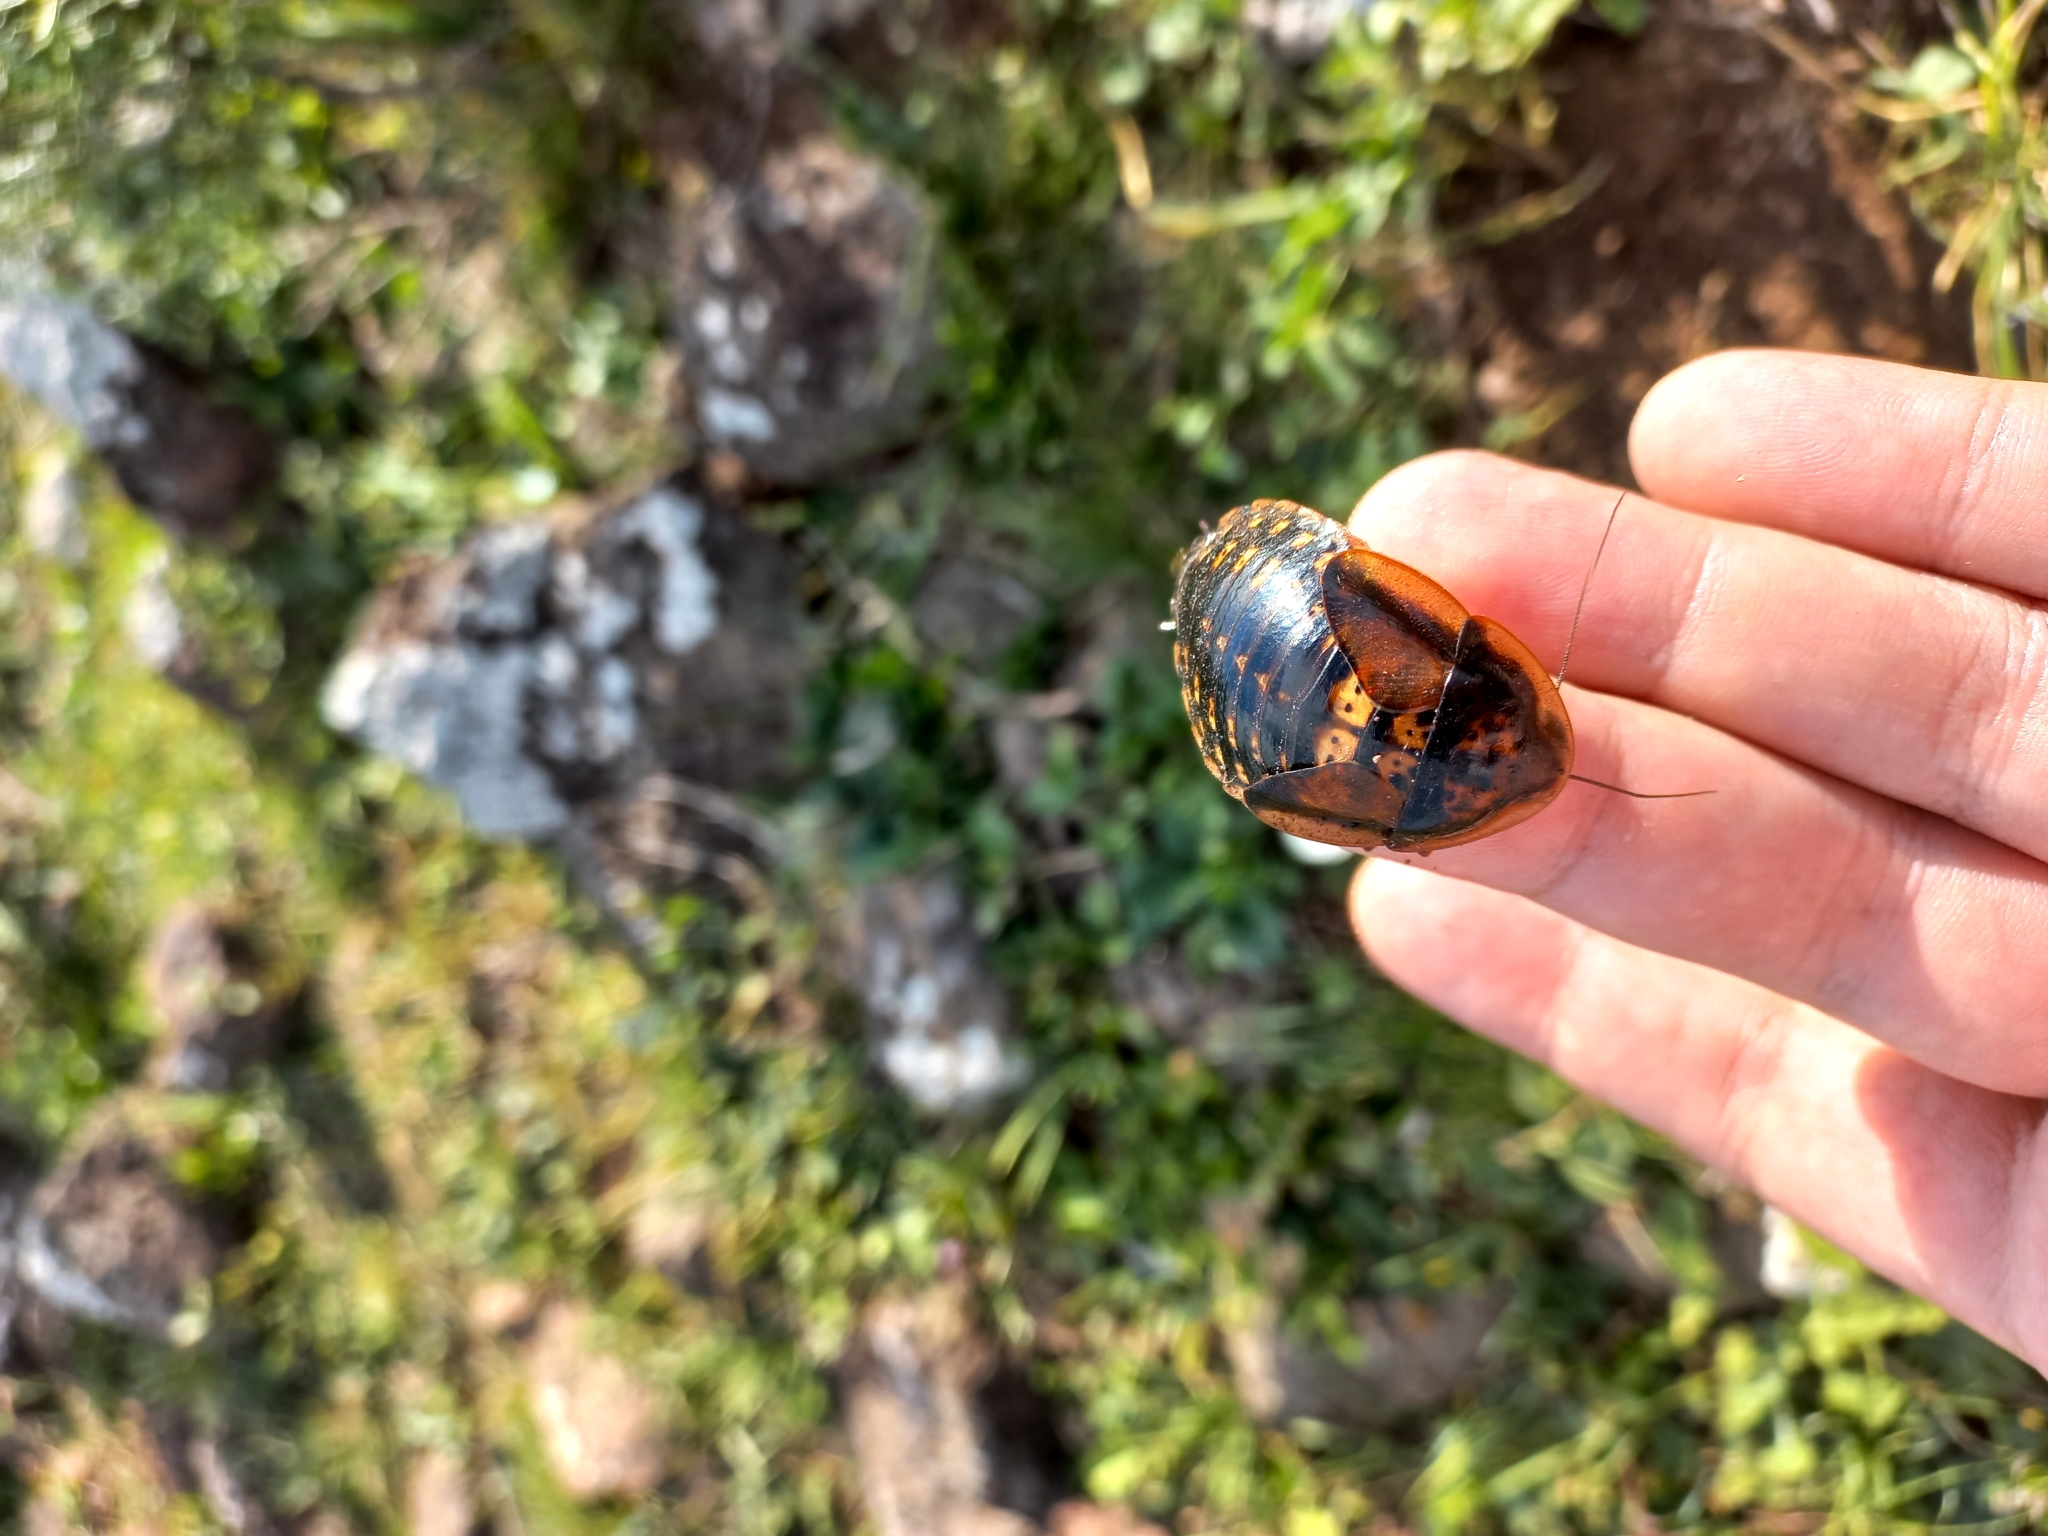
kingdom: Animalia
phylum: Arthropoda
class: Insecta
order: Blattodea
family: Blaberidae
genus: Blaptica
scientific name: Blaptica dubia
